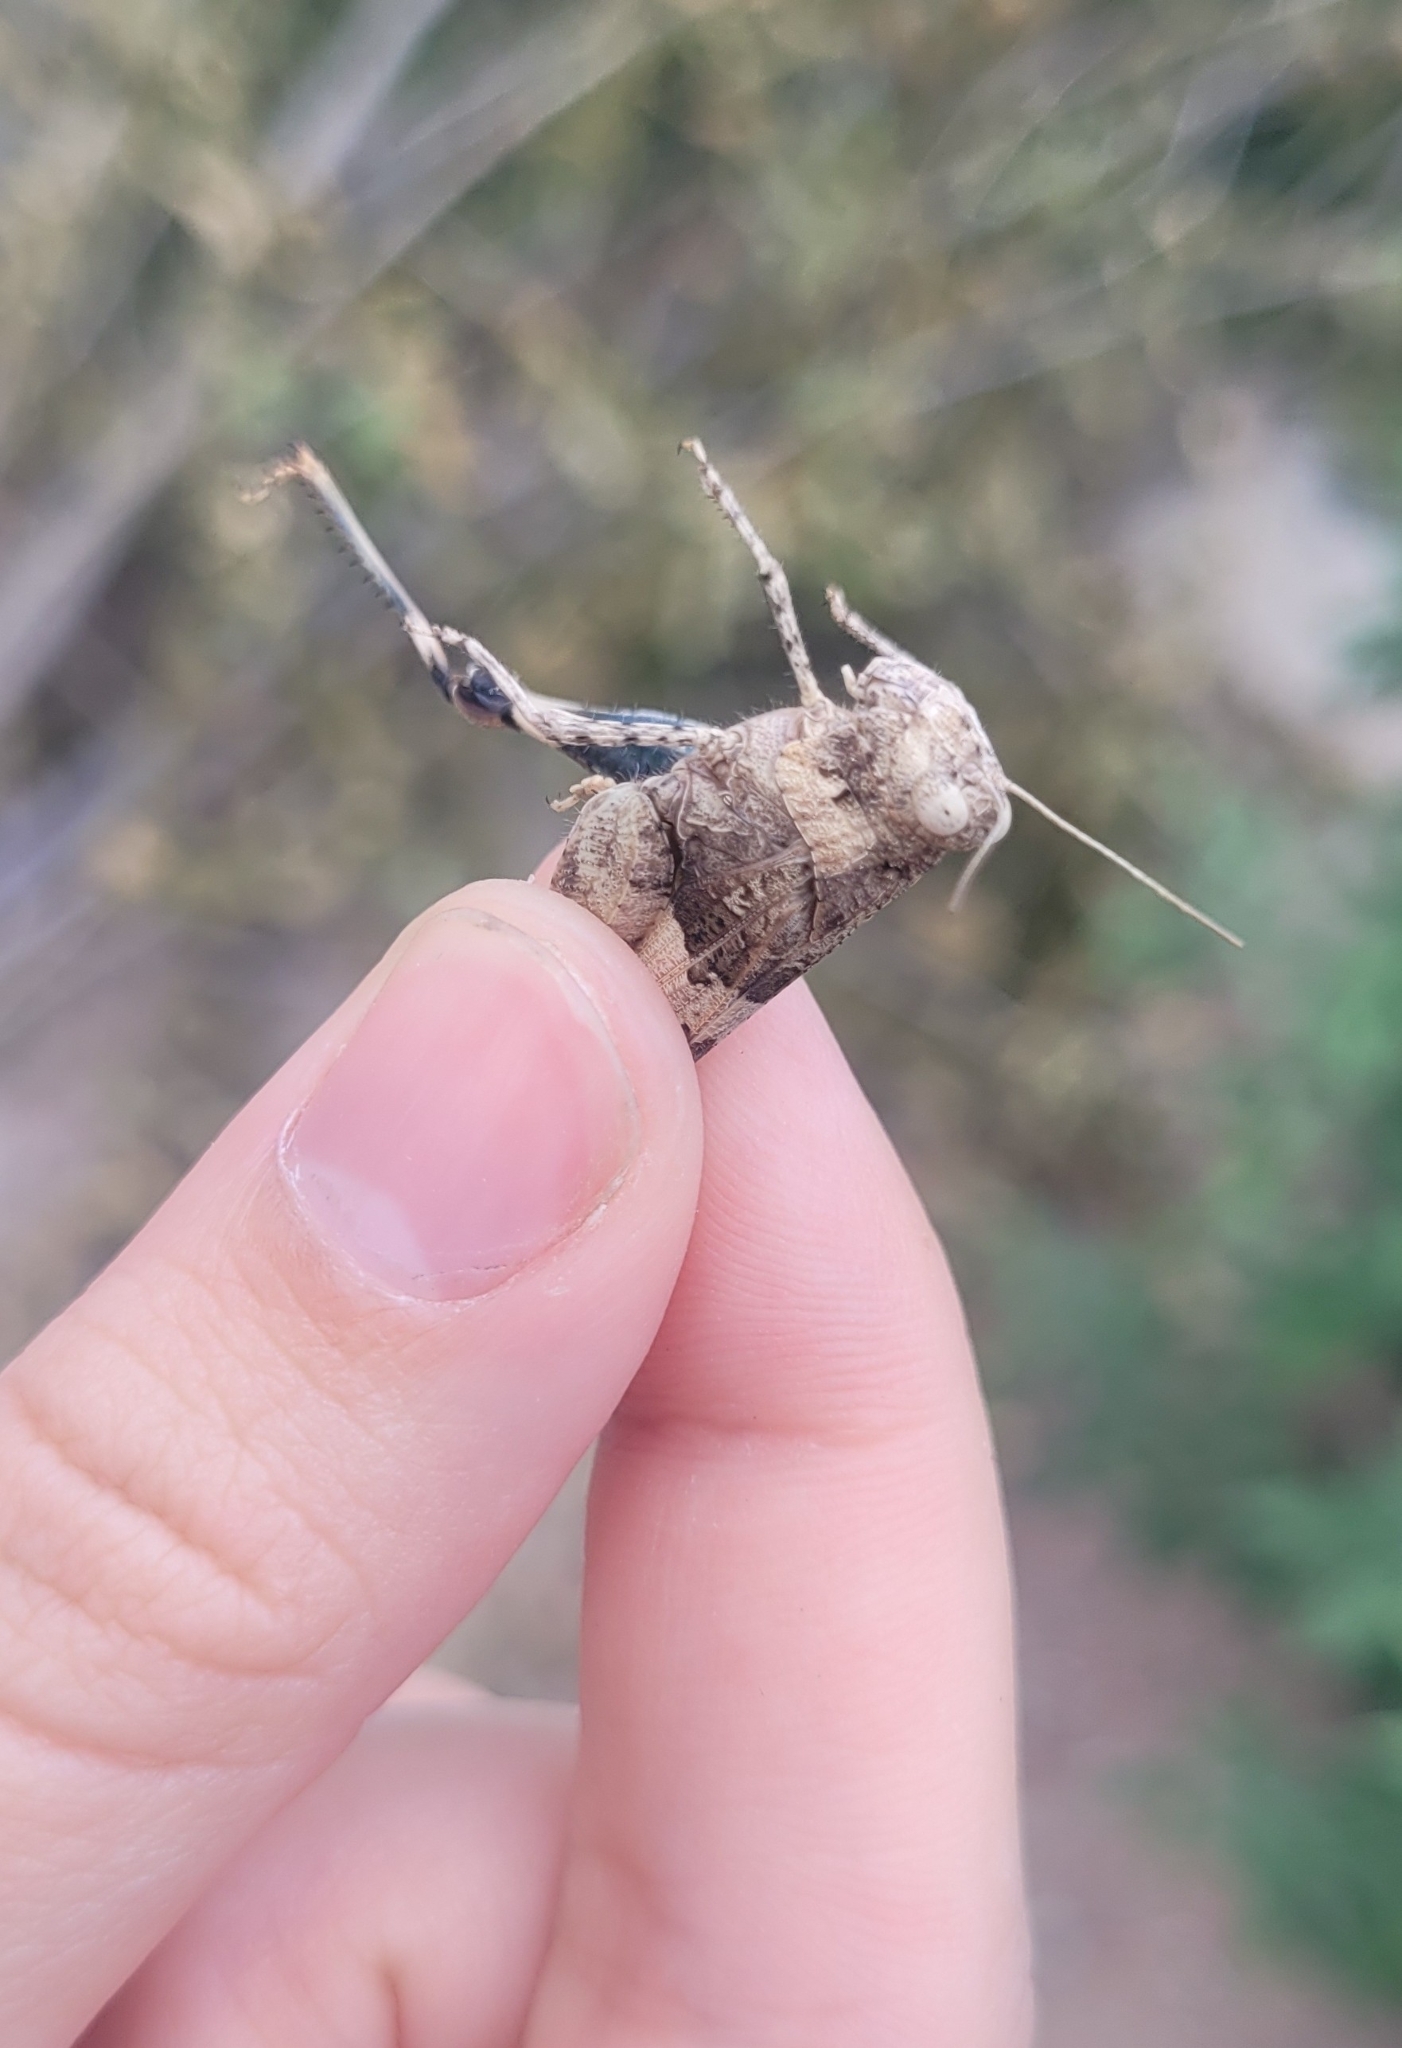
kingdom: Animalia
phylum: Arthropoda
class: Insecta
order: Orthoptera
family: Acrididae
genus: Oedipoda
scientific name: Oedipoda miniata
